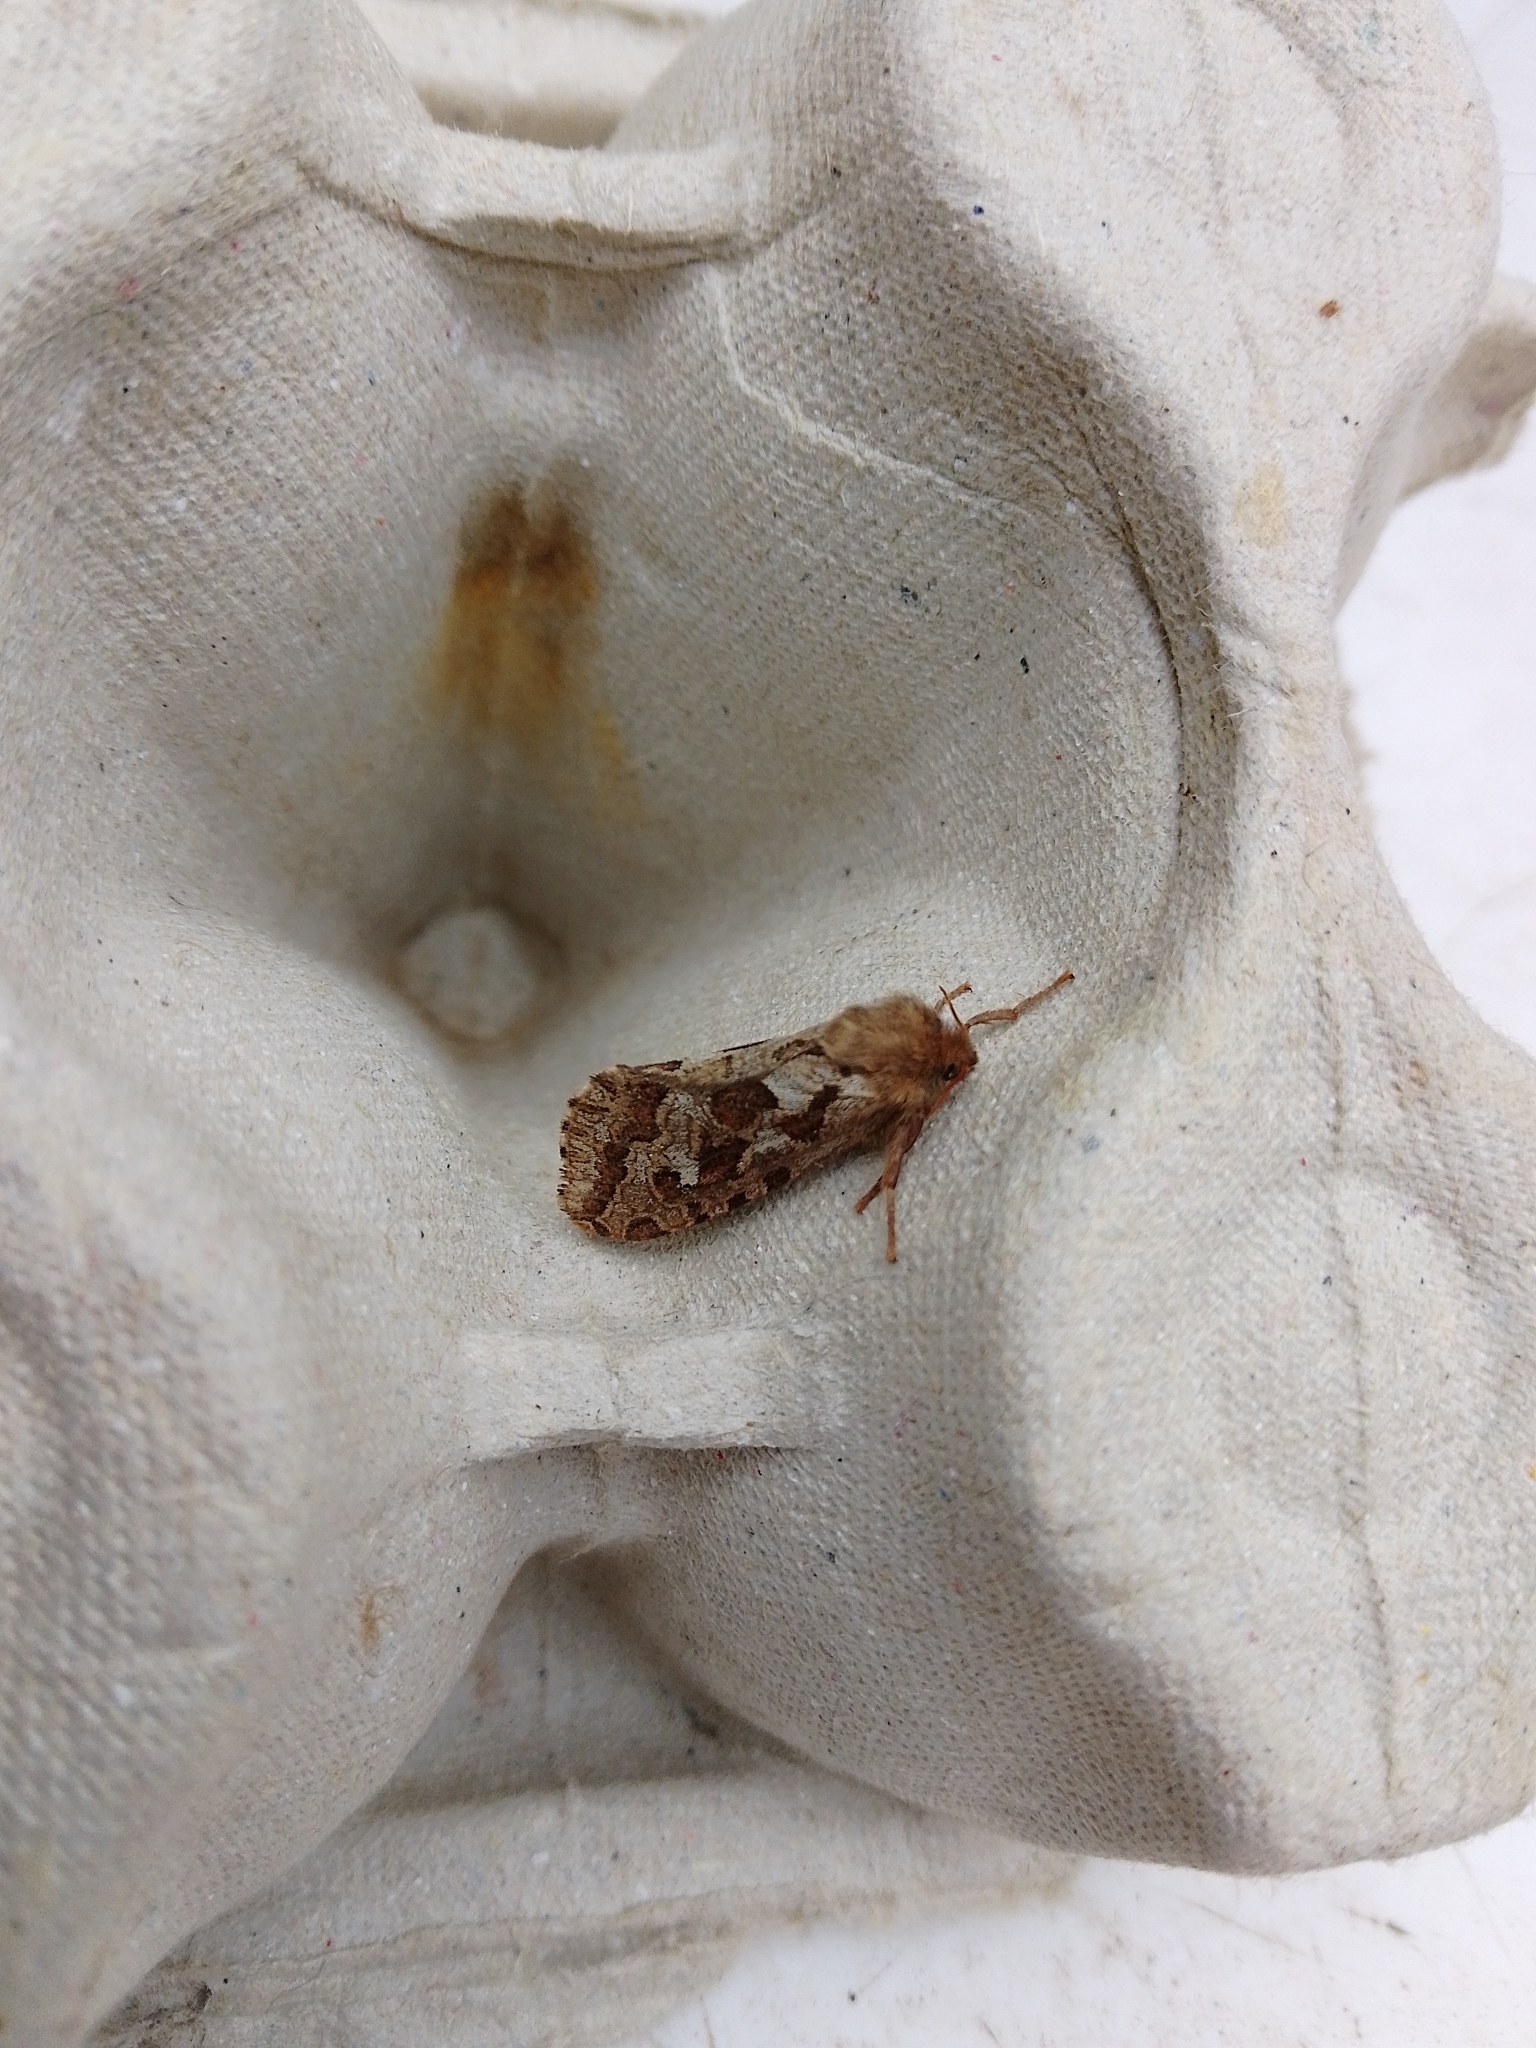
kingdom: Animalia
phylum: Arthropoda
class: Insecta
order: Lepidoptera
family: Hepialidae
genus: Korscheltellus
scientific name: Korscheltellus fusconebulosus
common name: Map-winged swift
